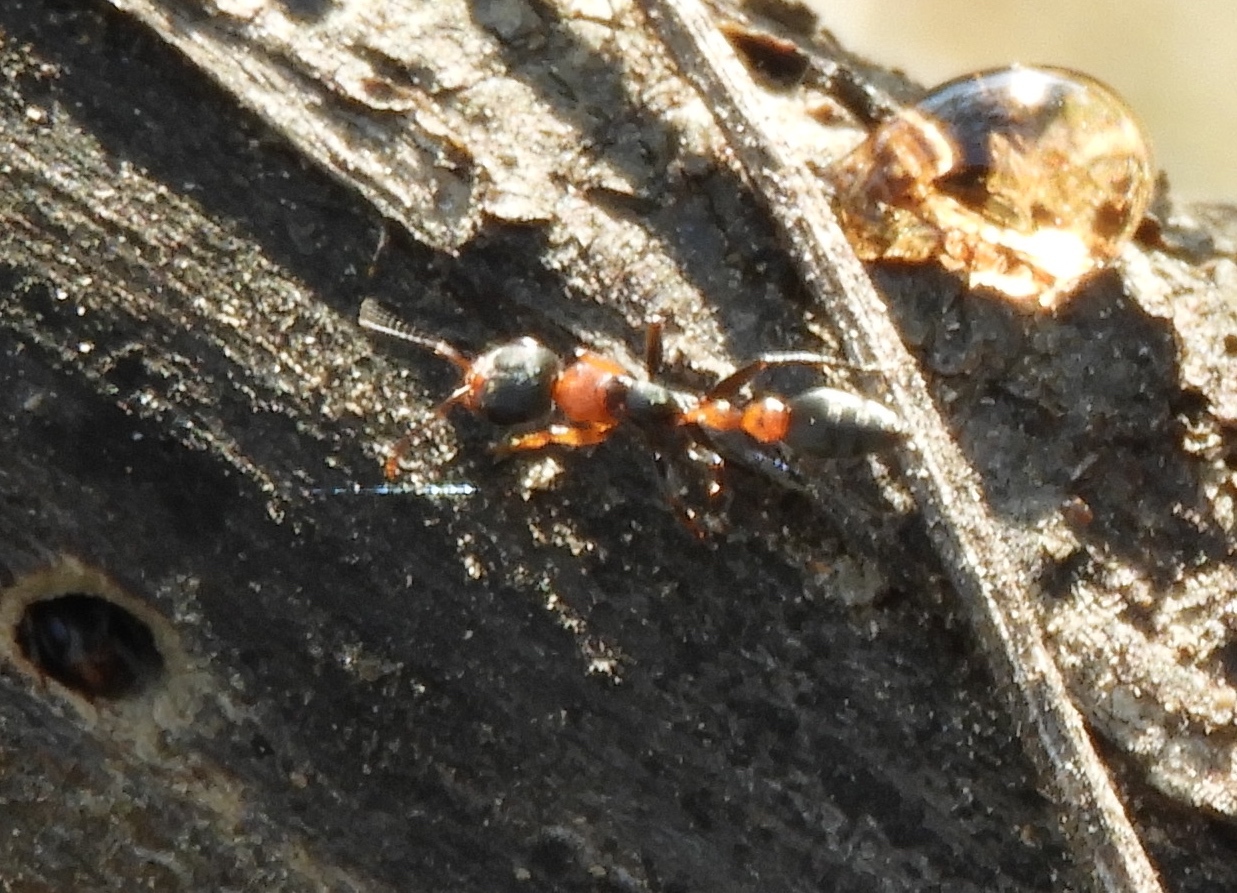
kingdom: Animalia
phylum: Arthropoda
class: Insecta
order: Hymenoptera
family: Formicidae
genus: Pseudomyrmex
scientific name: Pseudomyrmex gracilis
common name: Graceful twig ant
